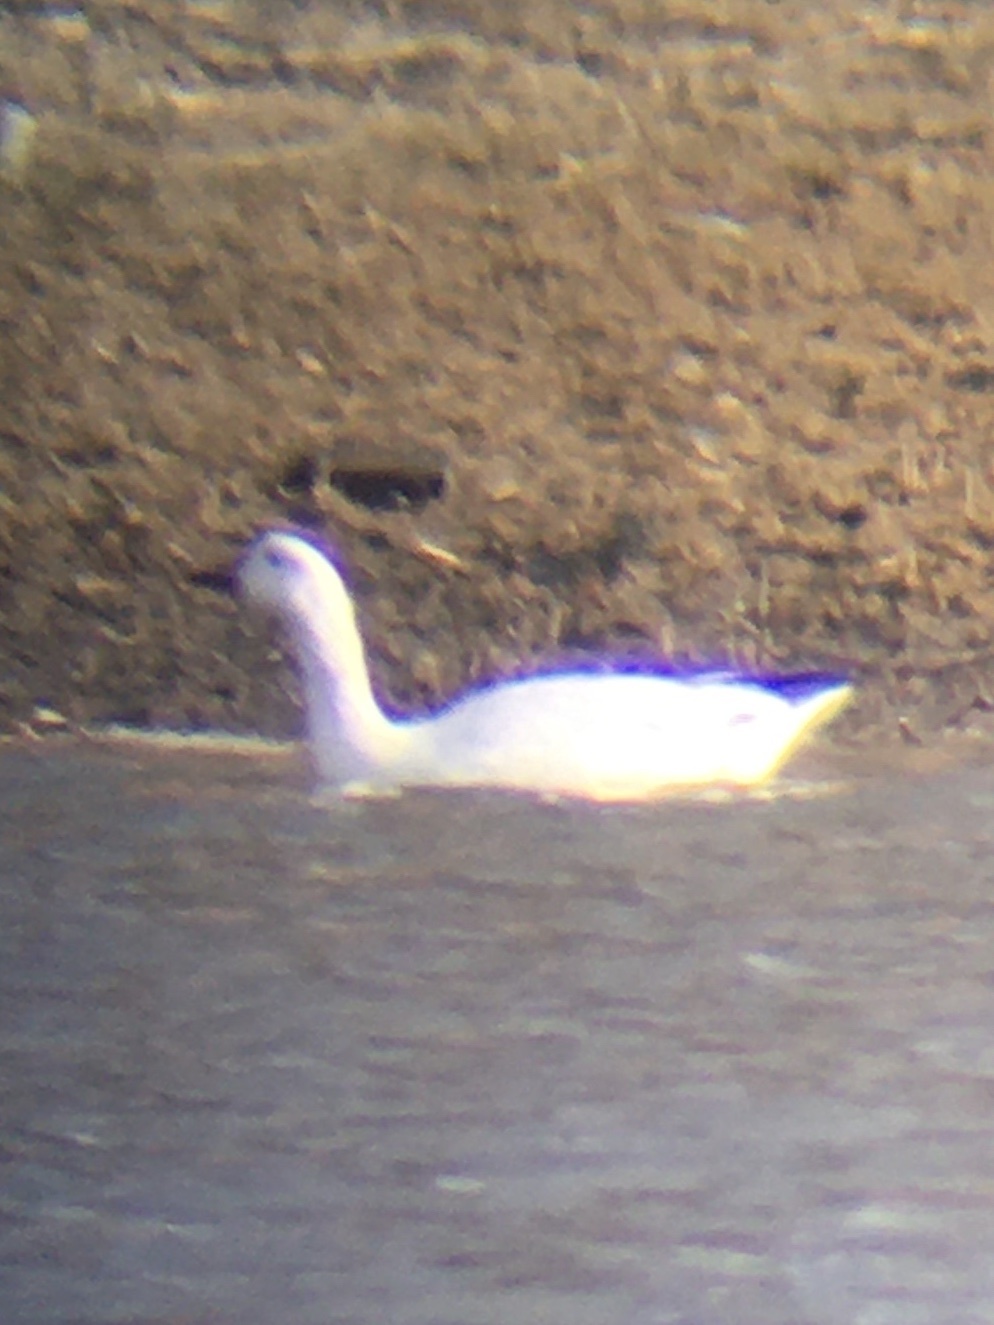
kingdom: Animalia
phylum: Chordata
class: Aves
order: Anseriformes
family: Anatidae
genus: Anser
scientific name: Anser caerulescens
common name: Snow goose
